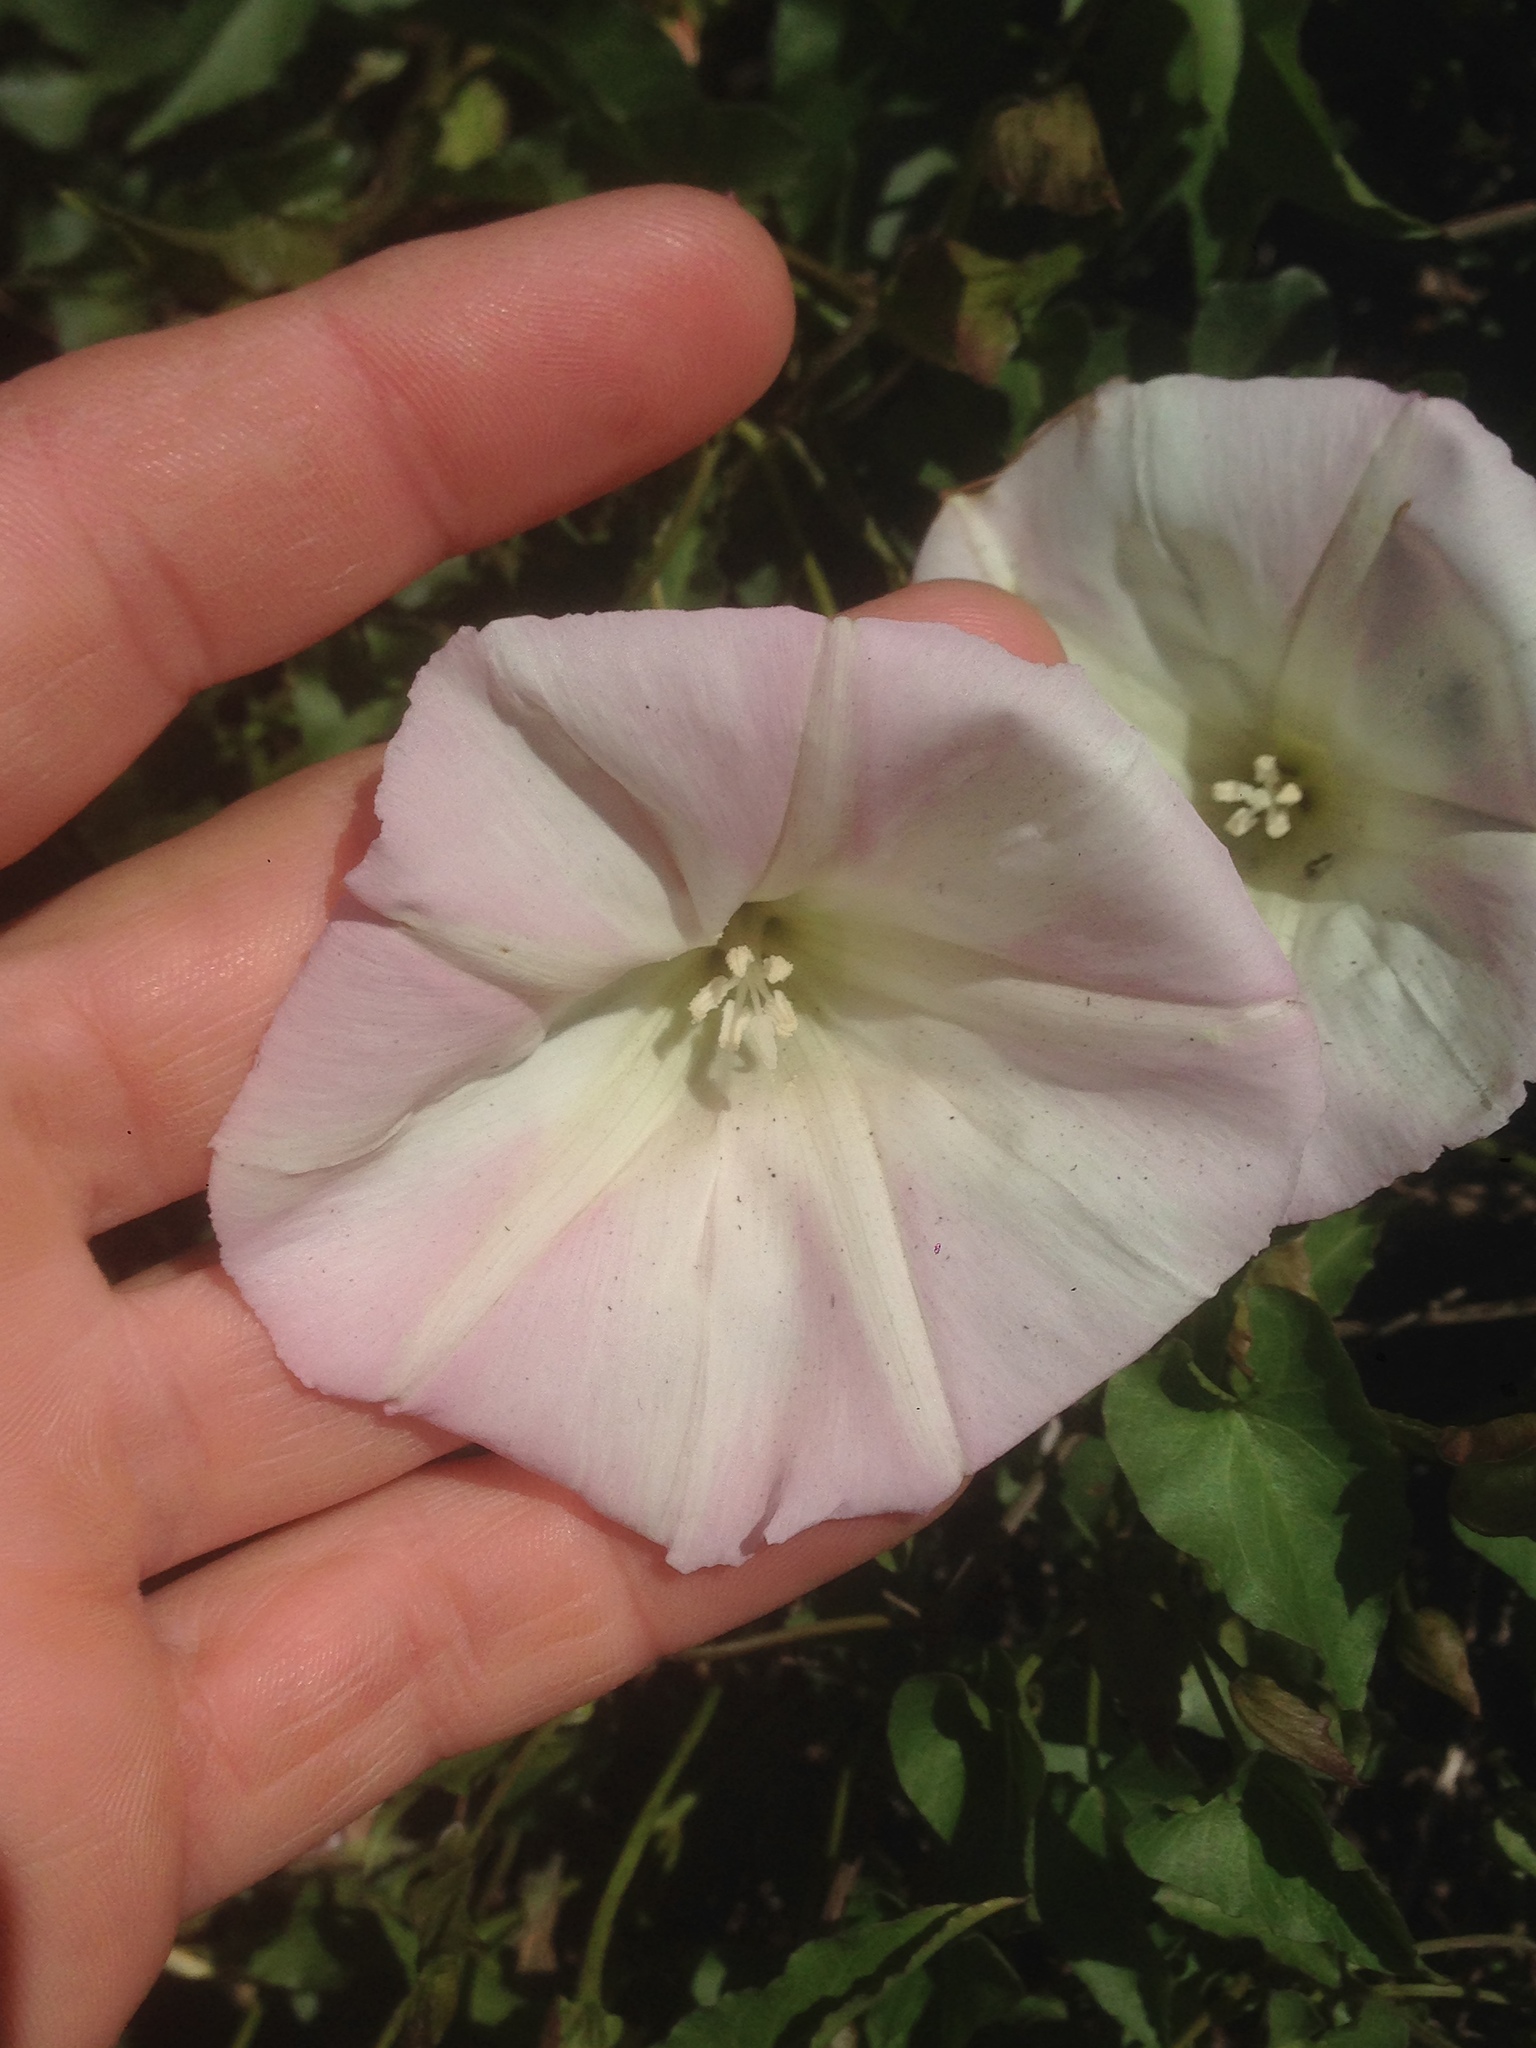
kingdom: Plantae
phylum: Tracheophyta
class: Magnoliopsida
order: Solanales
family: Convolvulaceae
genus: Calystegia
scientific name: Calystegia macrostegia
